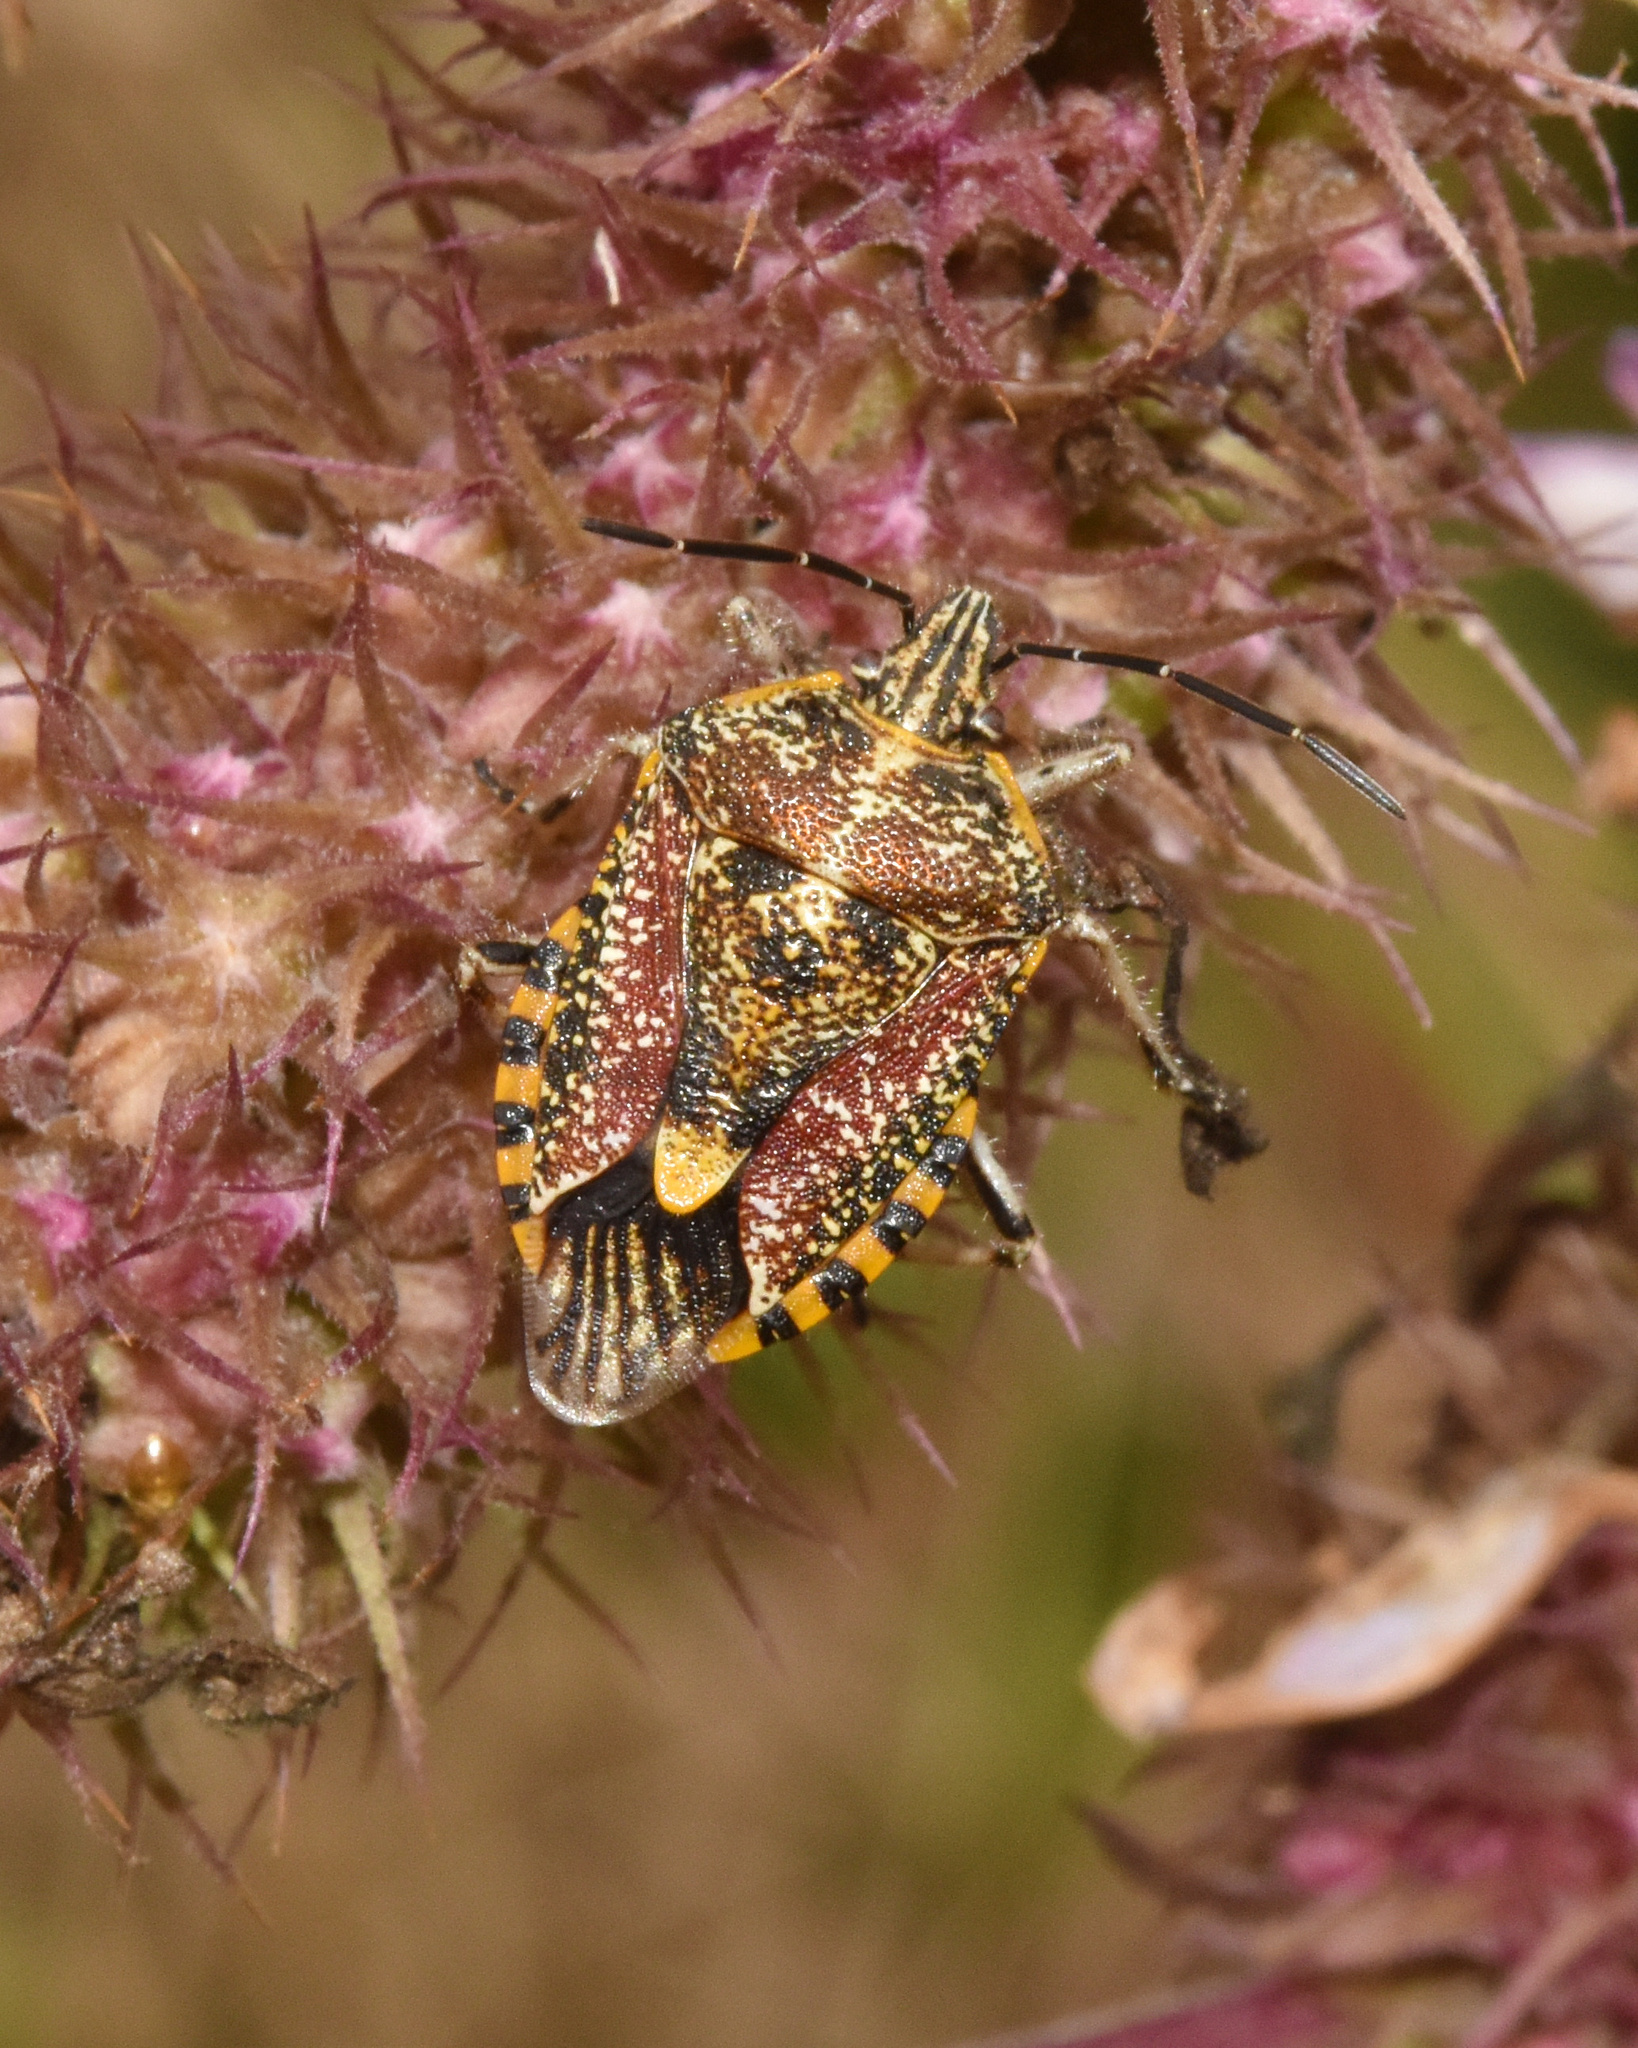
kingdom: Animalia
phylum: Arthropoda
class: Insecta
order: Hemiptera
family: Pentatomidae
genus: Agonoscelis
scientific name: Agonoscelis versicoloratus
